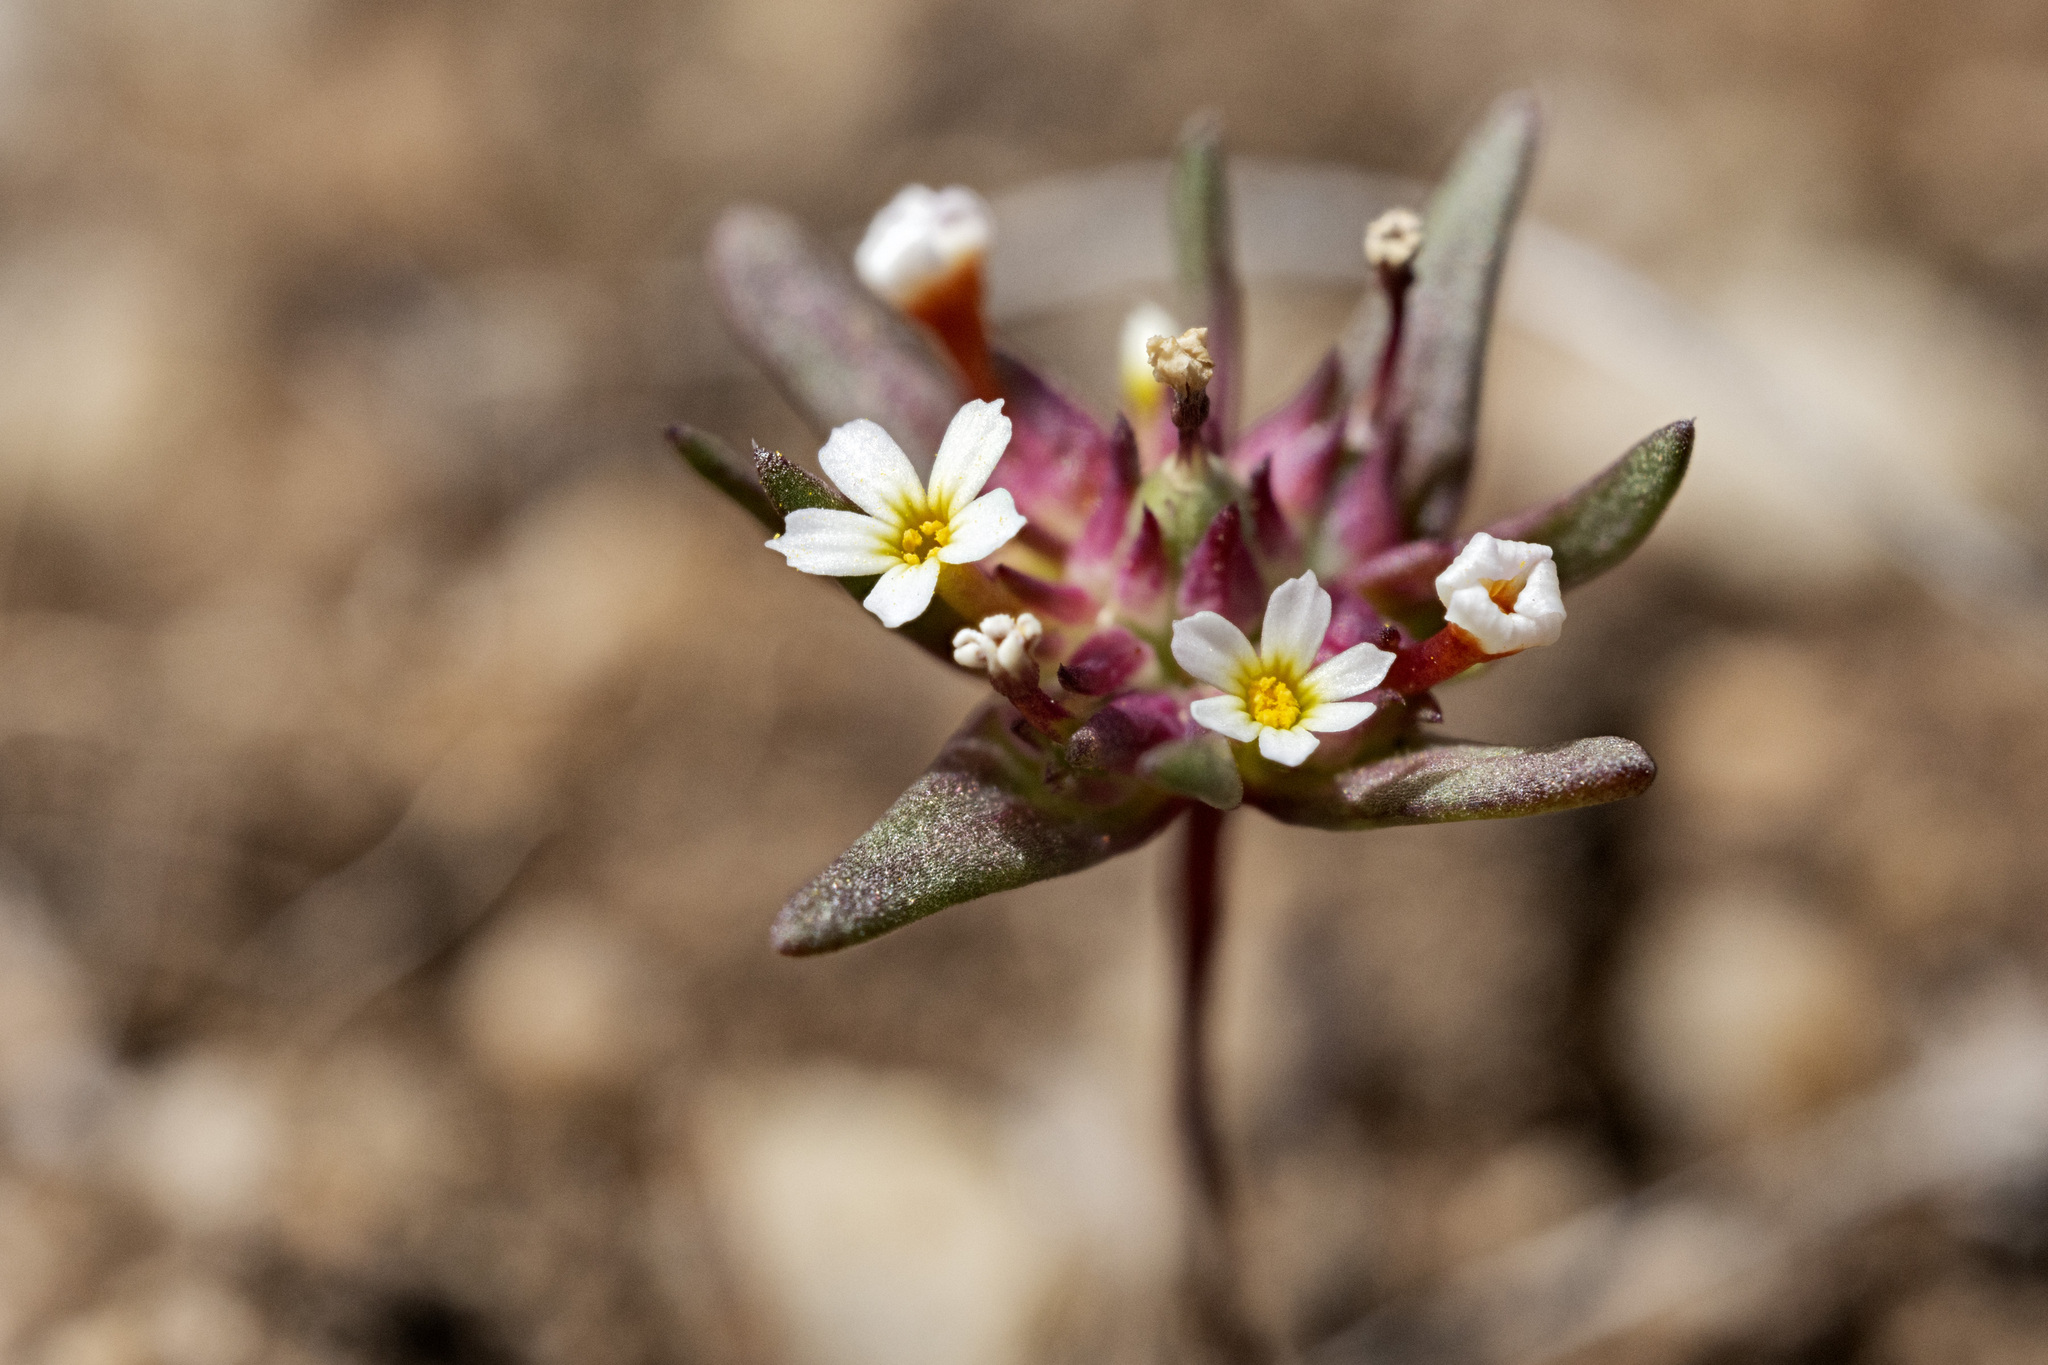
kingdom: Plantae
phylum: Tracheophyta
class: Magnoliopsida
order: Ericales
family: Polemoniaceae
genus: Gymnosteris
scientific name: Gymnosteris parvula
